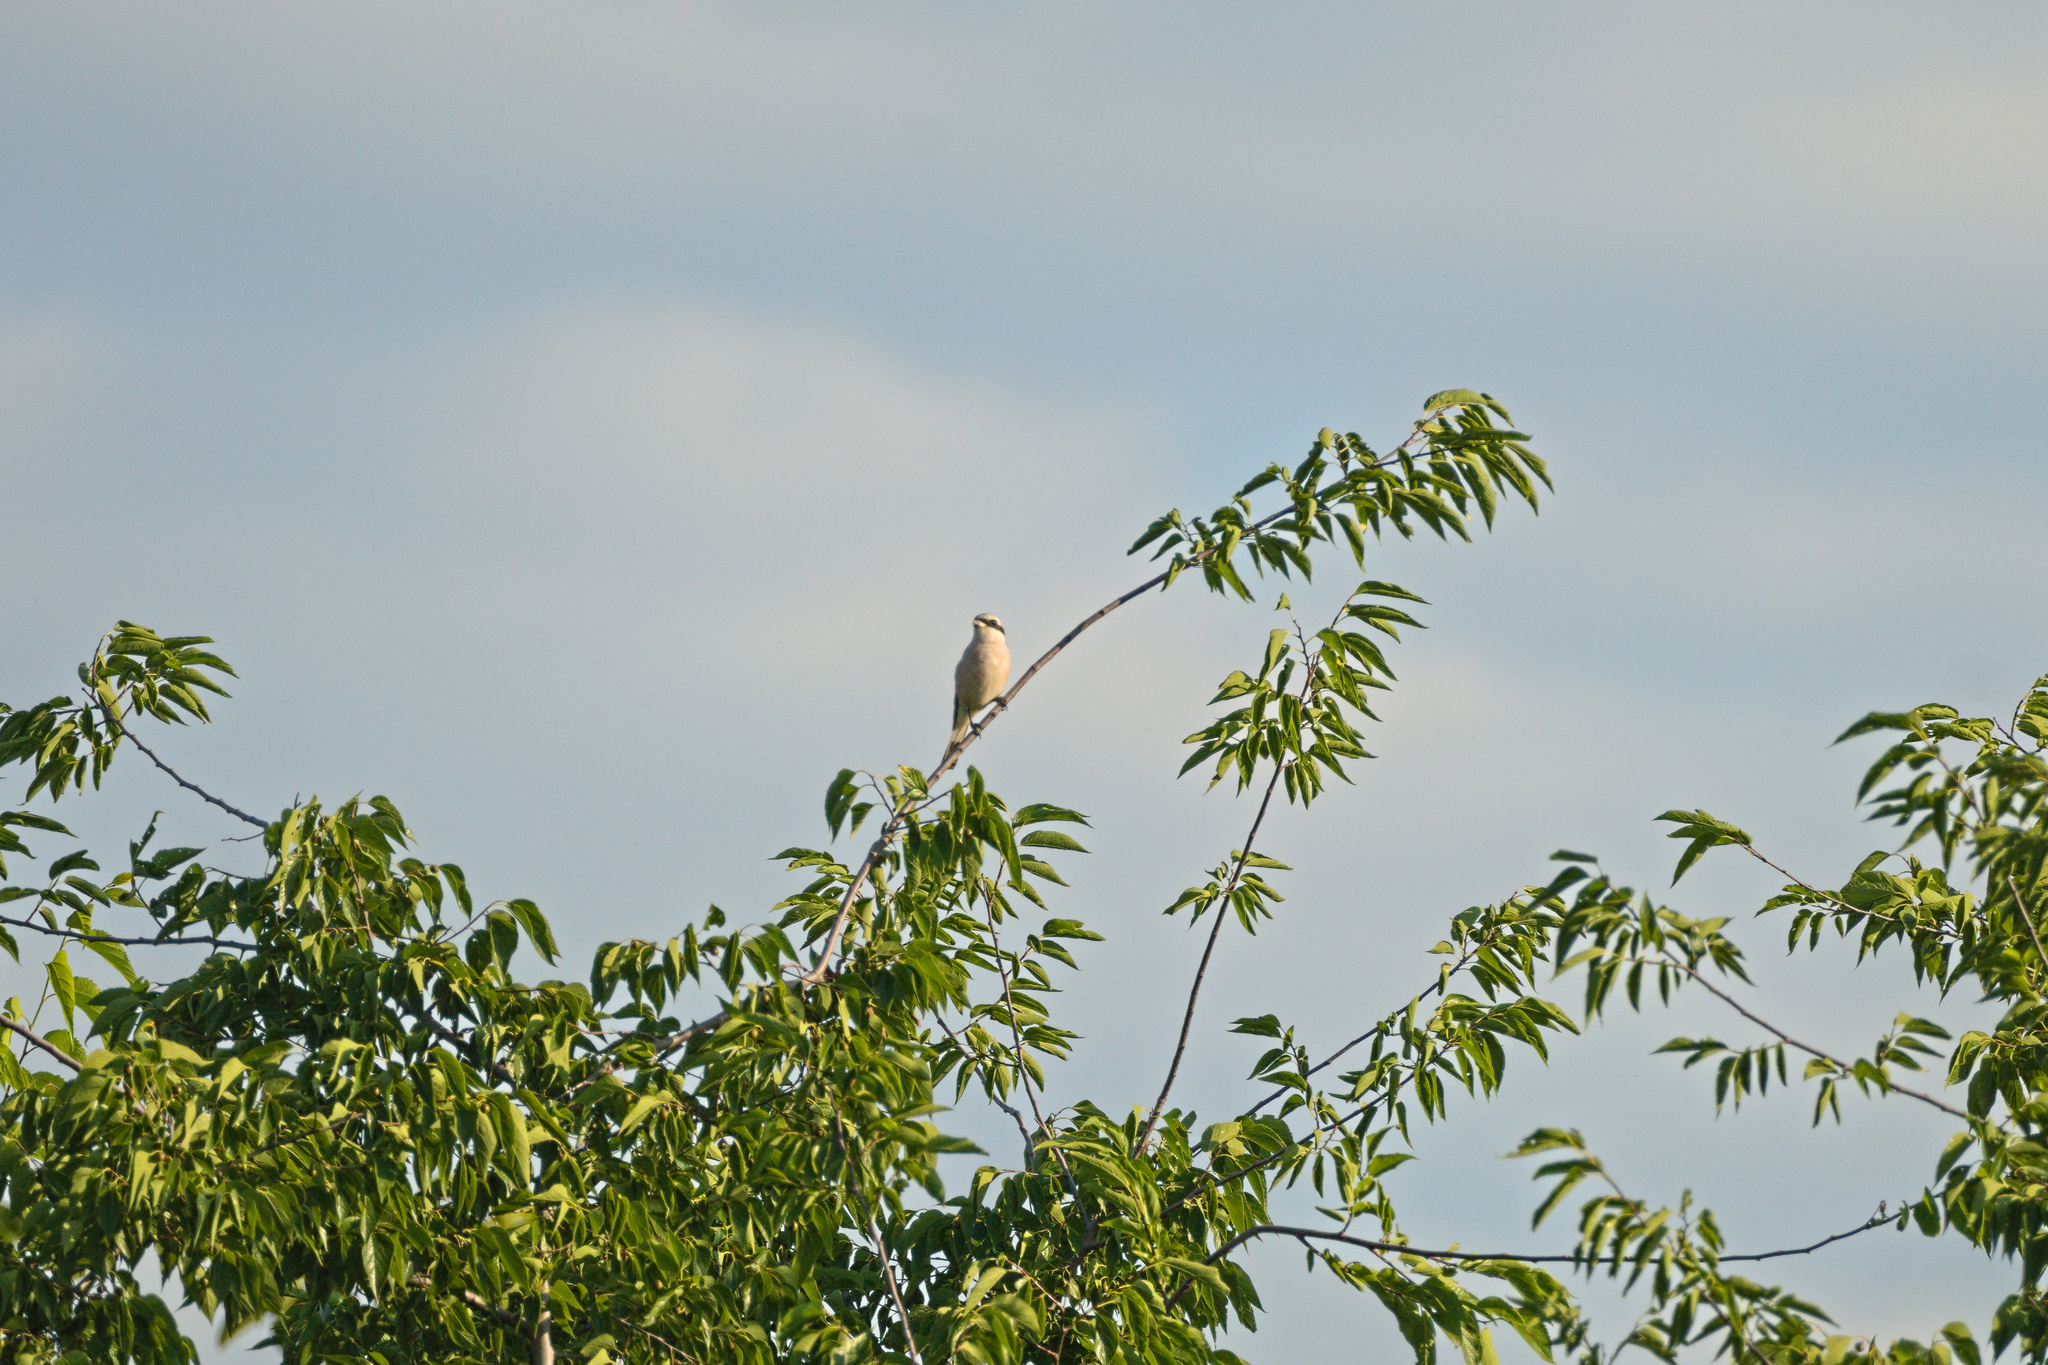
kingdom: Animalia
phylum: Chordata
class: Aves
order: Passeriformes
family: Laniidae
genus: Lanius
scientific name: Lanius collurio
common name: Red-backed shrike
